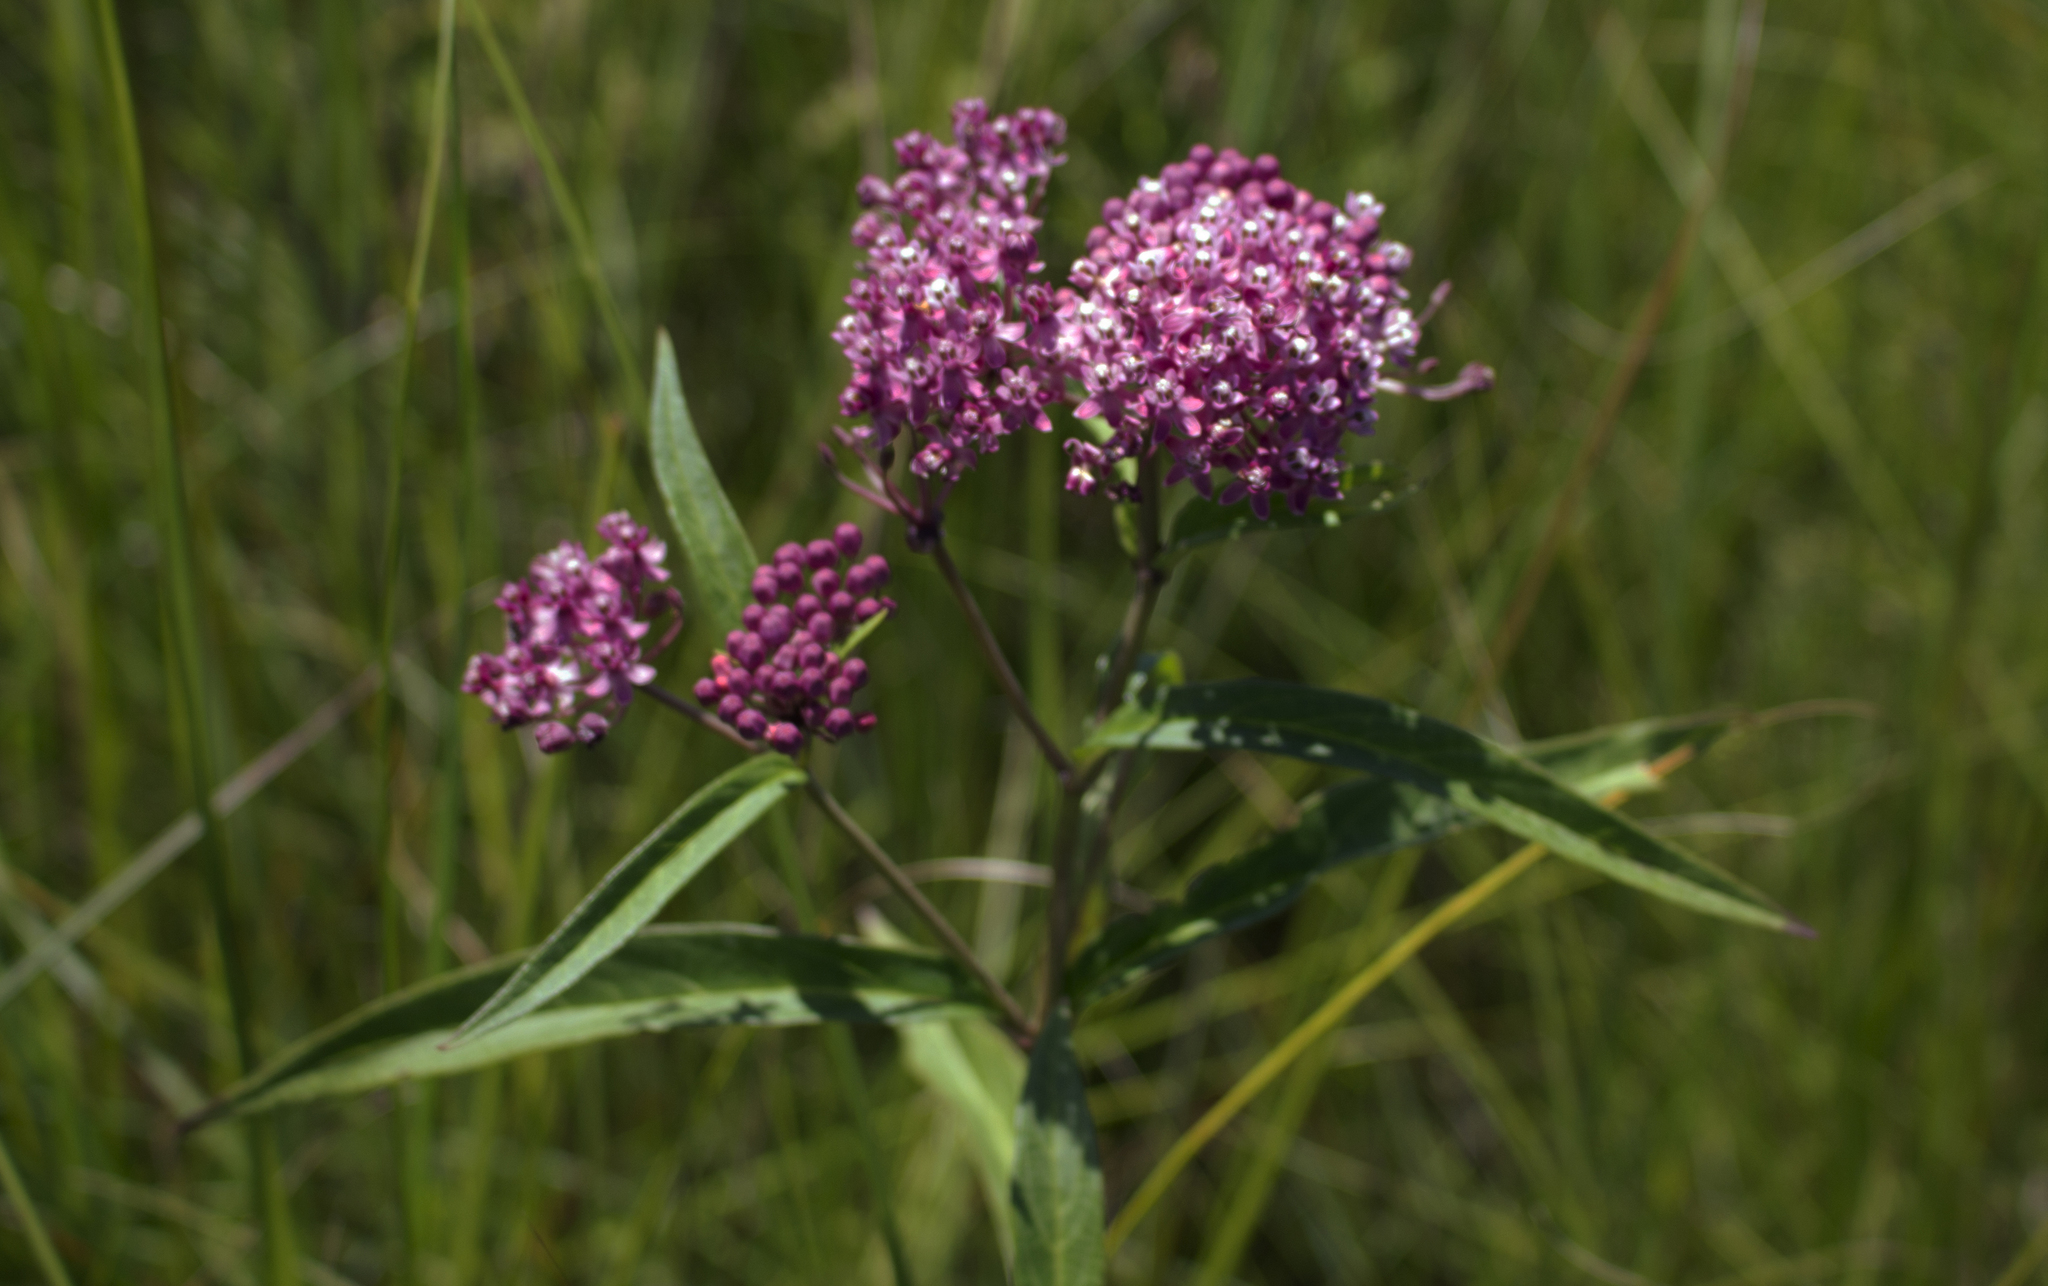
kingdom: Plantae
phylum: Tracheophyta
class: Magnoliopsida
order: Gentianales
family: Apocynaceae
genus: Asclepias
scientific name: Asclepias incarnata
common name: Swamp milkweed
